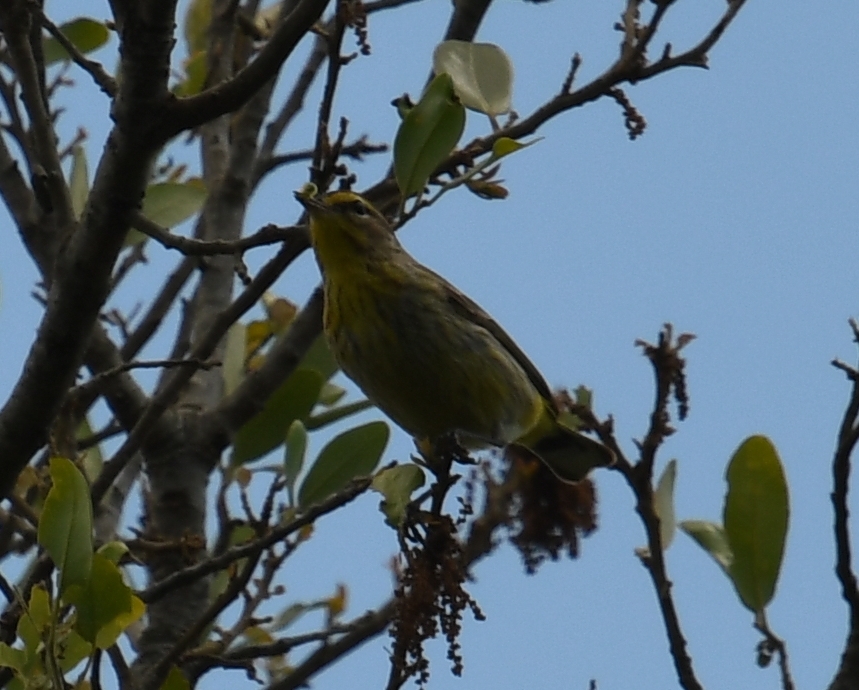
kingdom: Animalia
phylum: Chordata
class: Aves
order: Passeriformes
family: Parulidae
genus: Setophaga
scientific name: Setophaga palmarum
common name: Palm warbler
